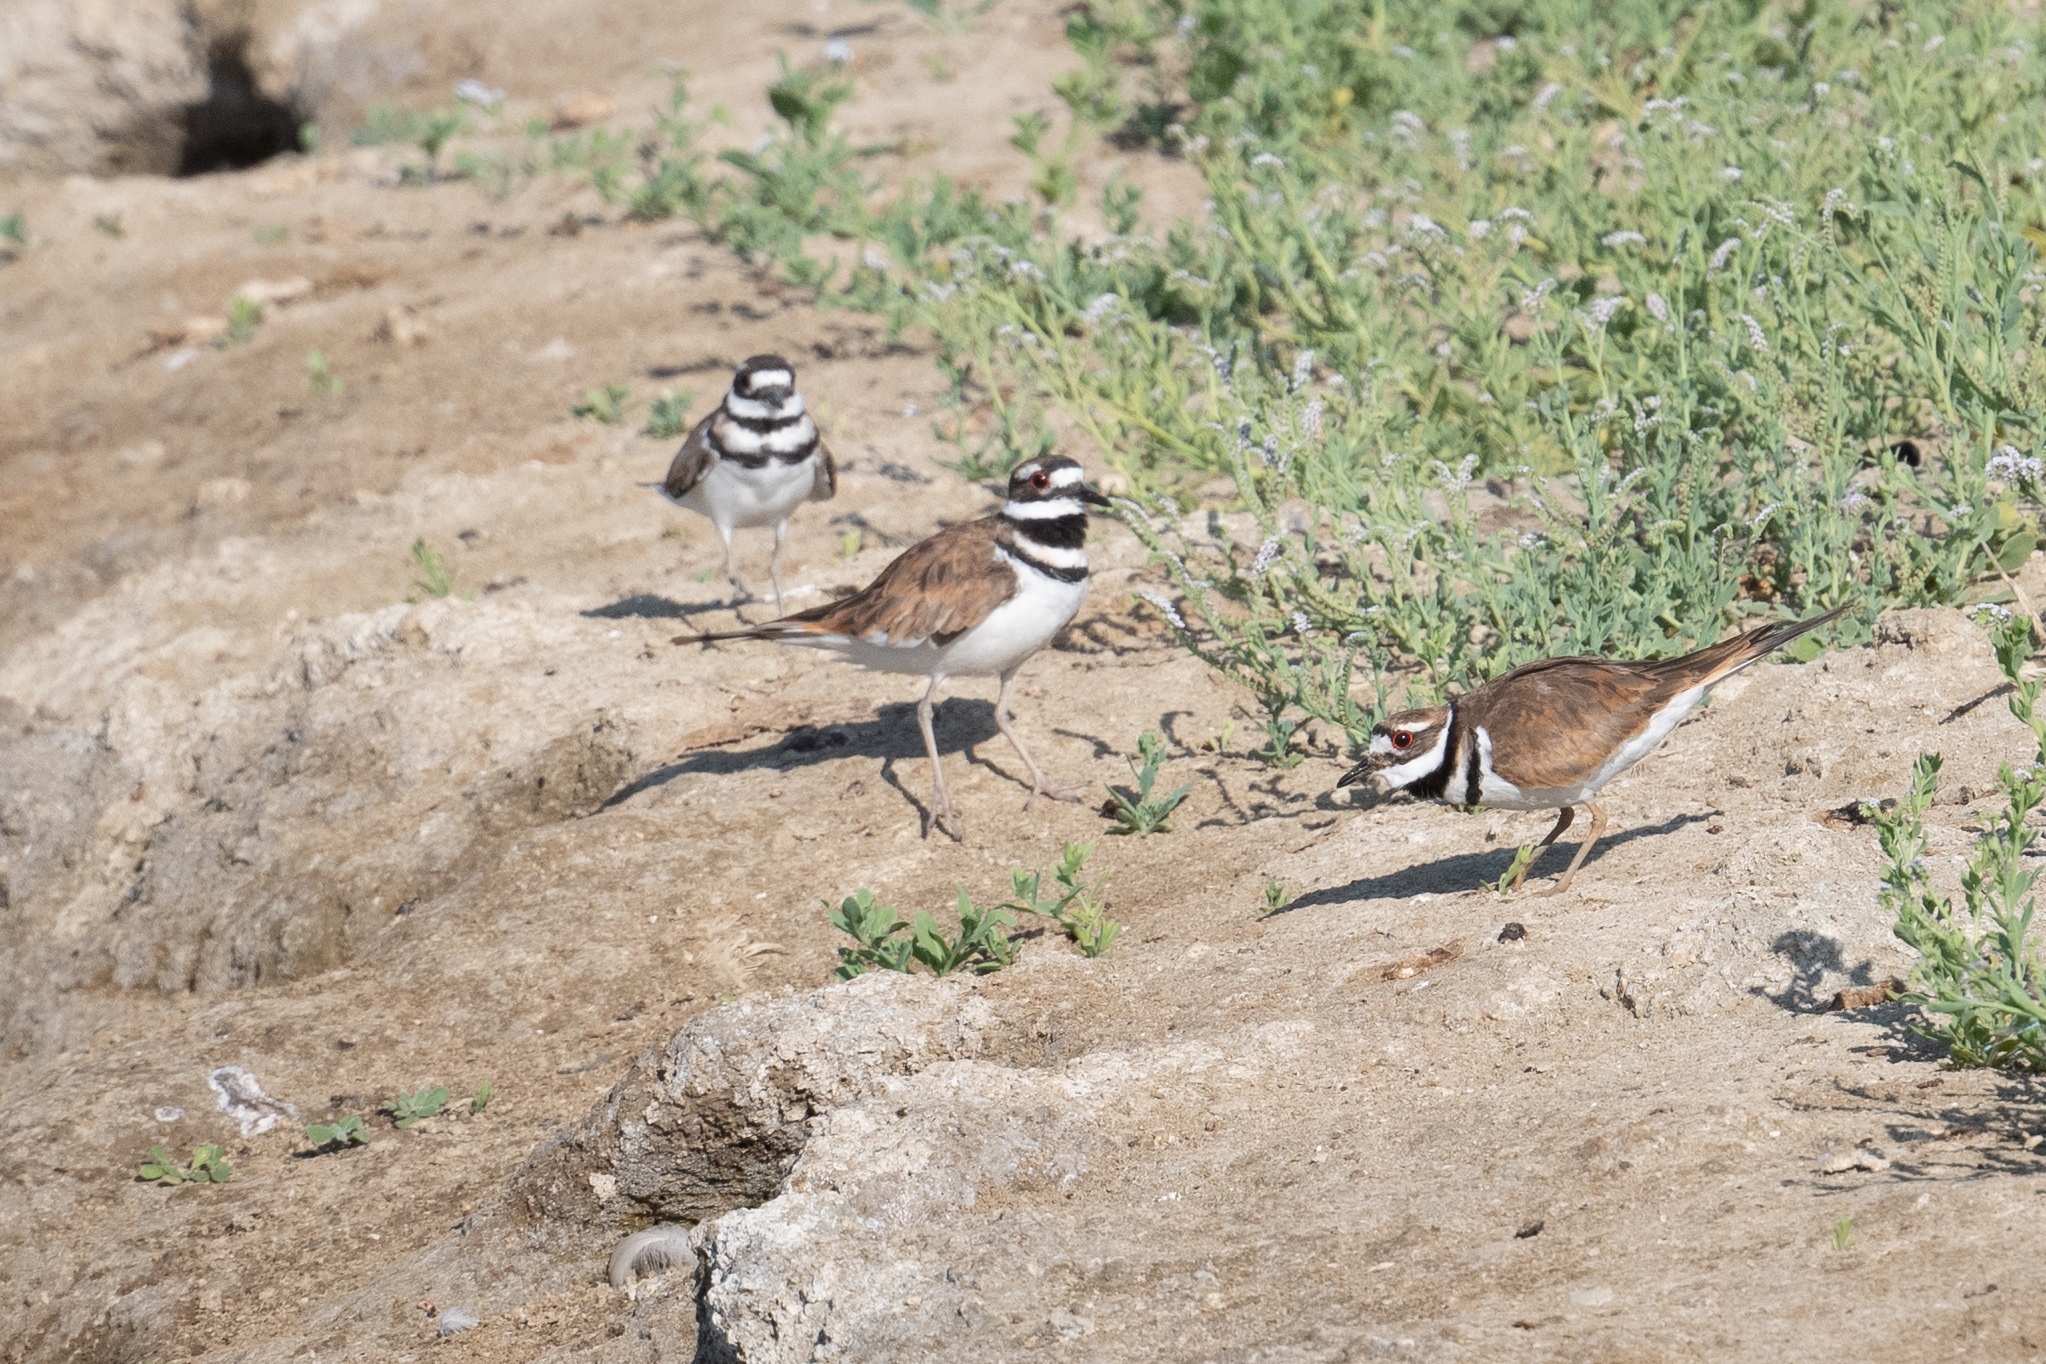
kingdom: Animalia
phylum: Chordata
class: Aves
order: Charadriiformes
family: Charadriidae
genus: Charadrius
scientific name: Charadrius vociferus
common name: Killdeer
